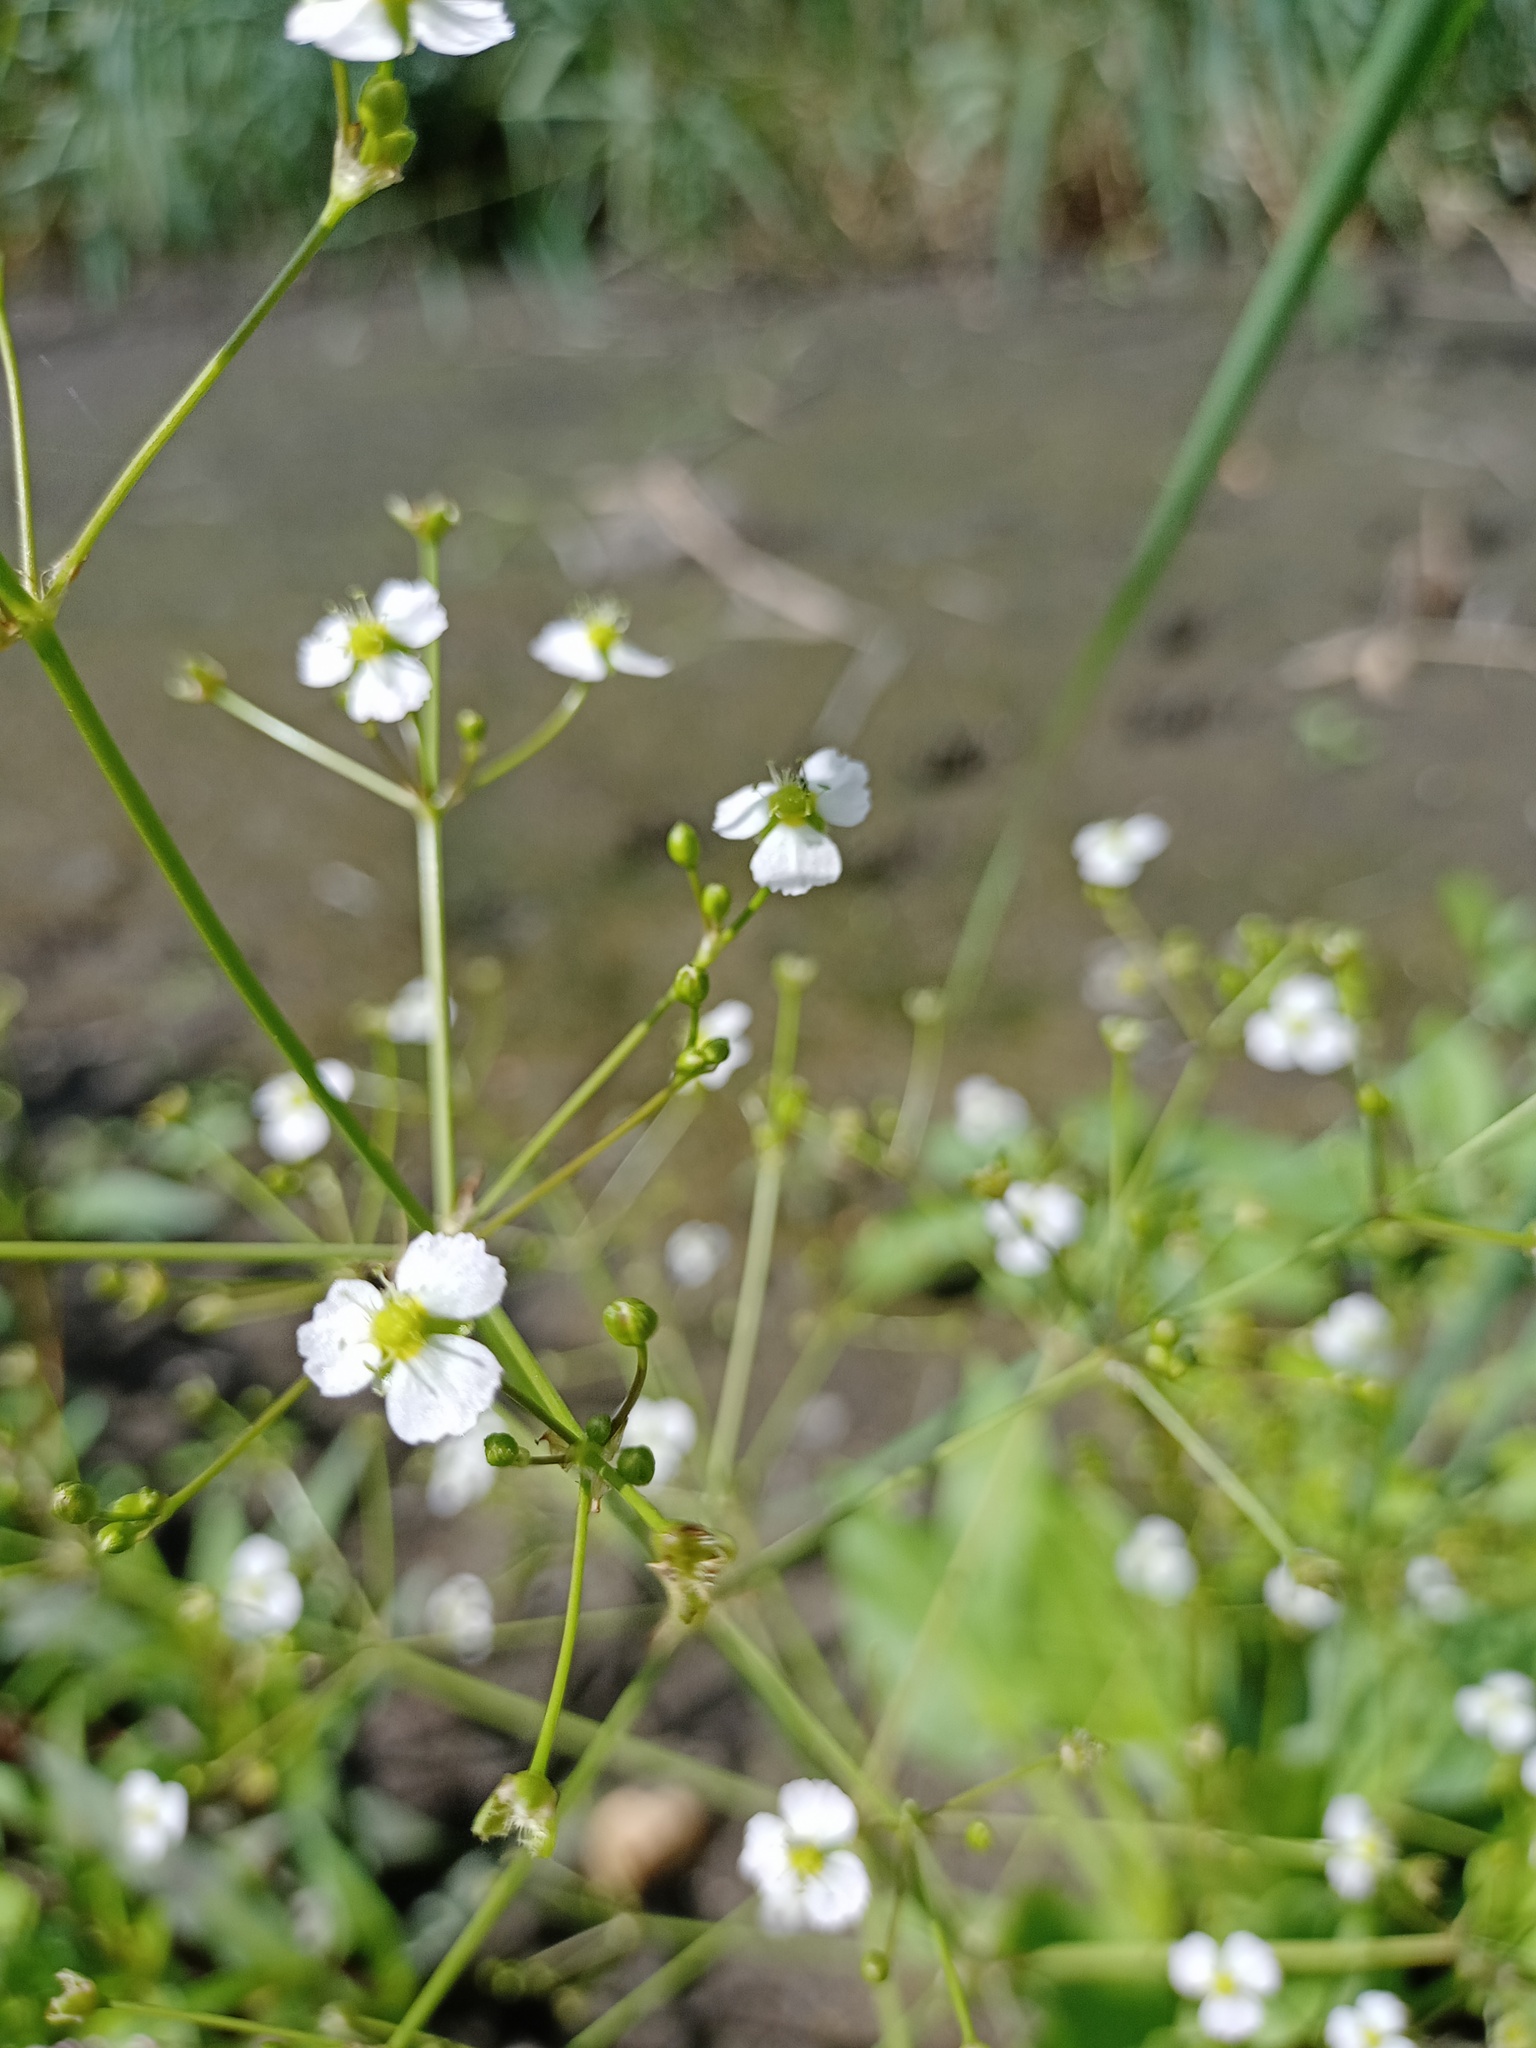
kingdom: Plantae
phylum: Tracheophyta
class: Liliopsida
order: Alismatales
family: Alismataceae
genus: Alisma
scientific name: Alisma plantago-aquatica
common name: Water-plantain
